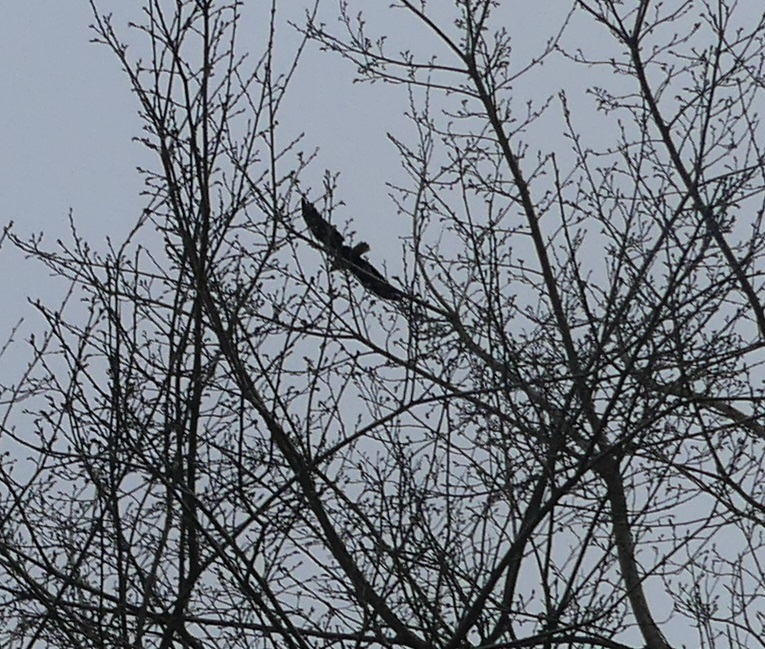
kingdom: Animalia
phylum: Chordata
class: Aves
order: Accipitriformes
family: Accipitridae
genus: Haliaeetus
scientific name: Haliaeetus leucocephalus
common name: Bald eagle
